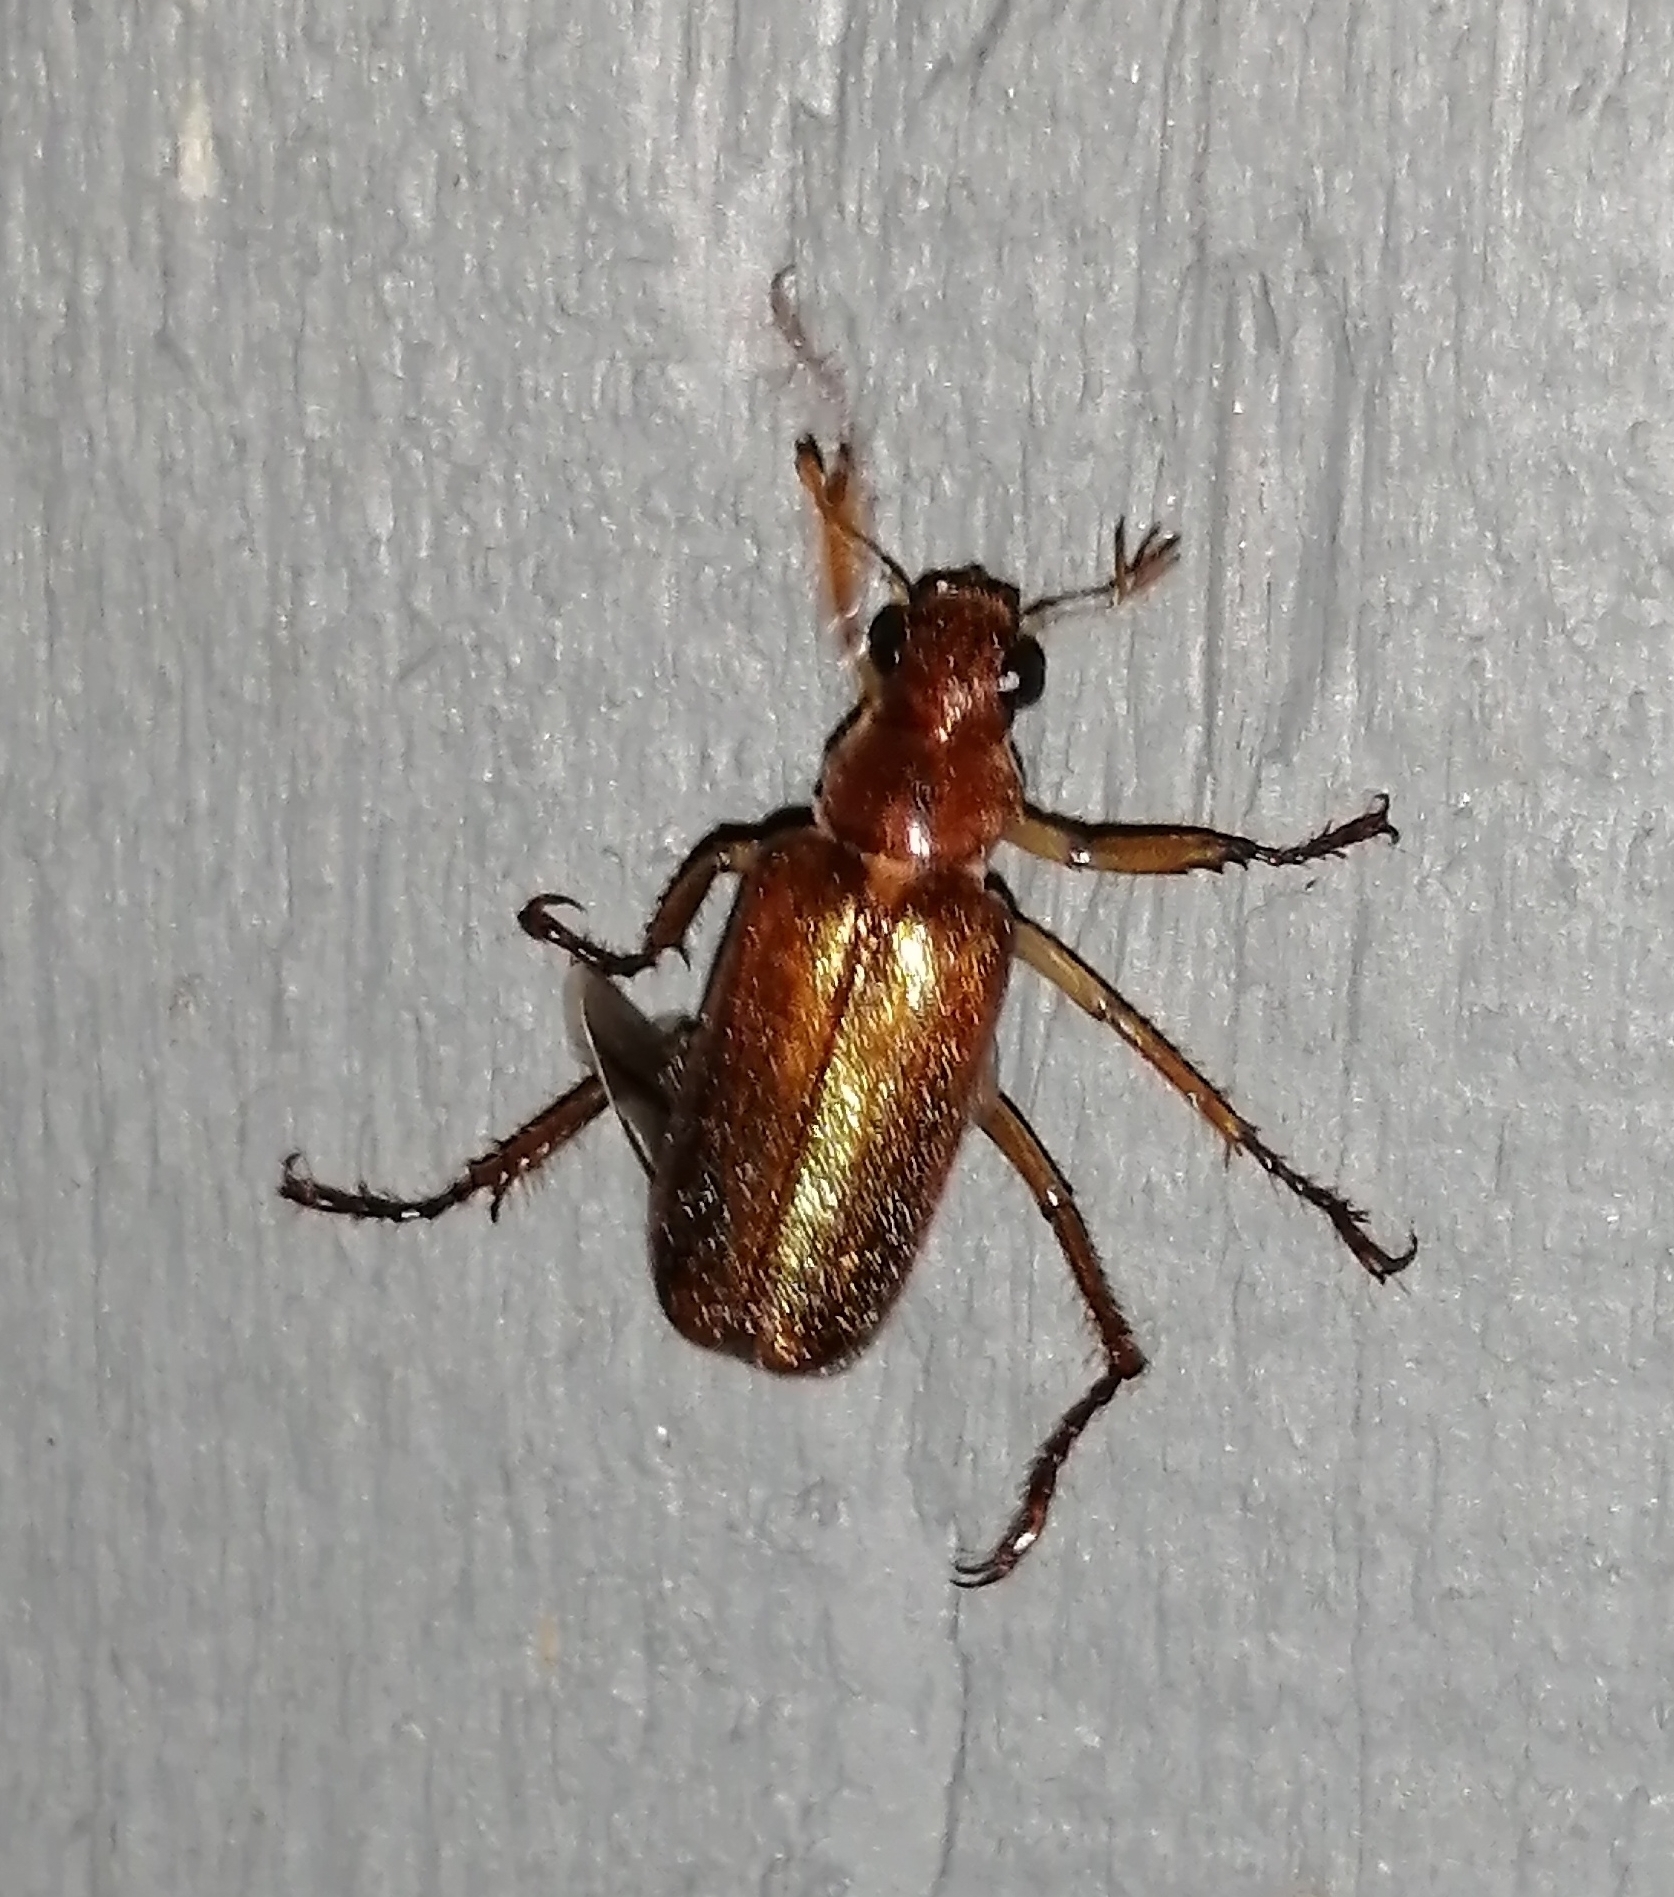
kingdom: Animalia
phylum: Arthropoda
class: Insecta
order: Coleoptera
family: Scarabaeidae
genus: Dichelonyx
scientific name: Dichelonyx linearis
